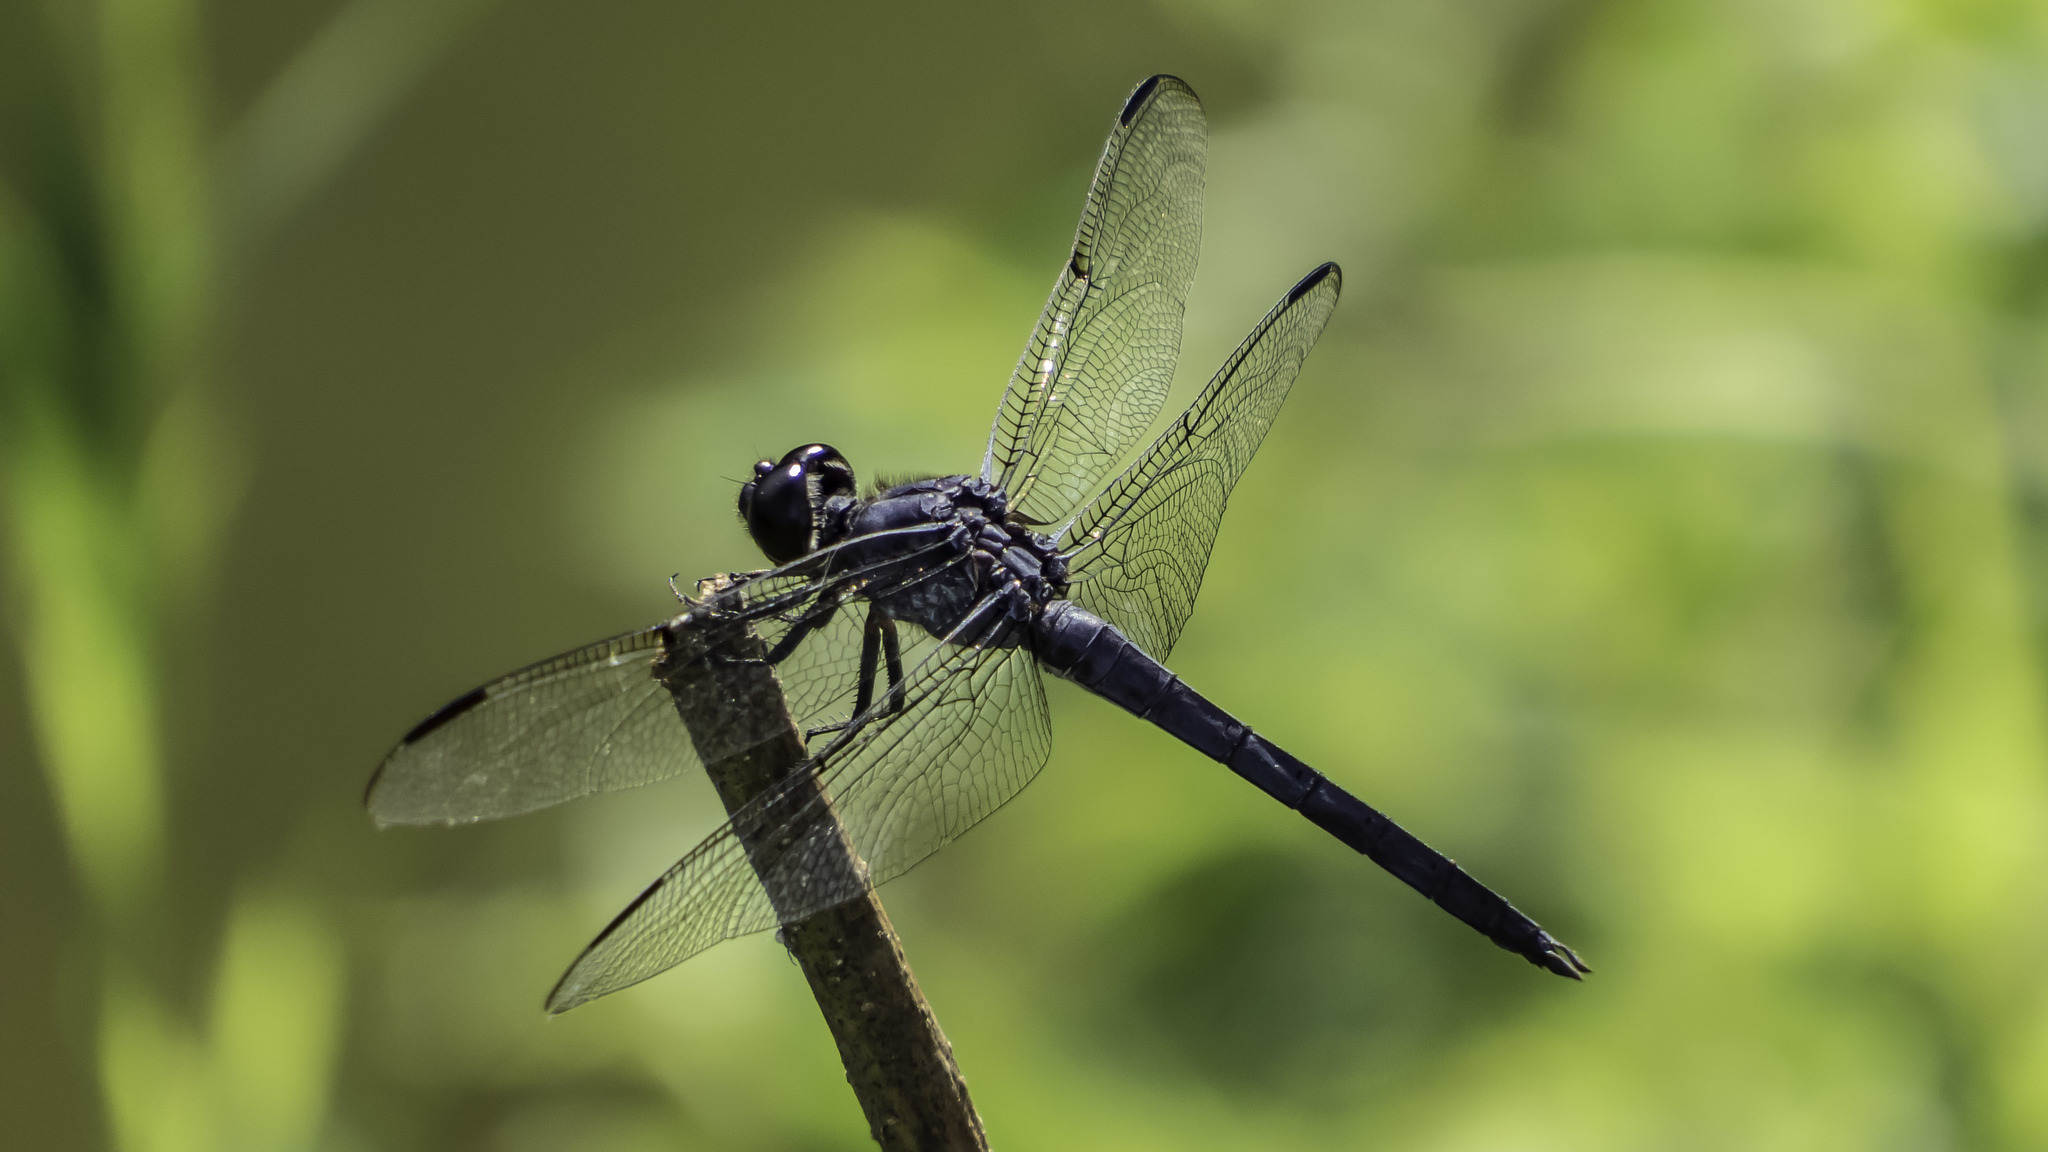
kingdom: Animalia
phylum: Arthropoda
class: Insecta
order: Odonata
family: Libellulidae
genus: Libellula
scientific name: Libellula incesta
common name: Slaty skimmer
